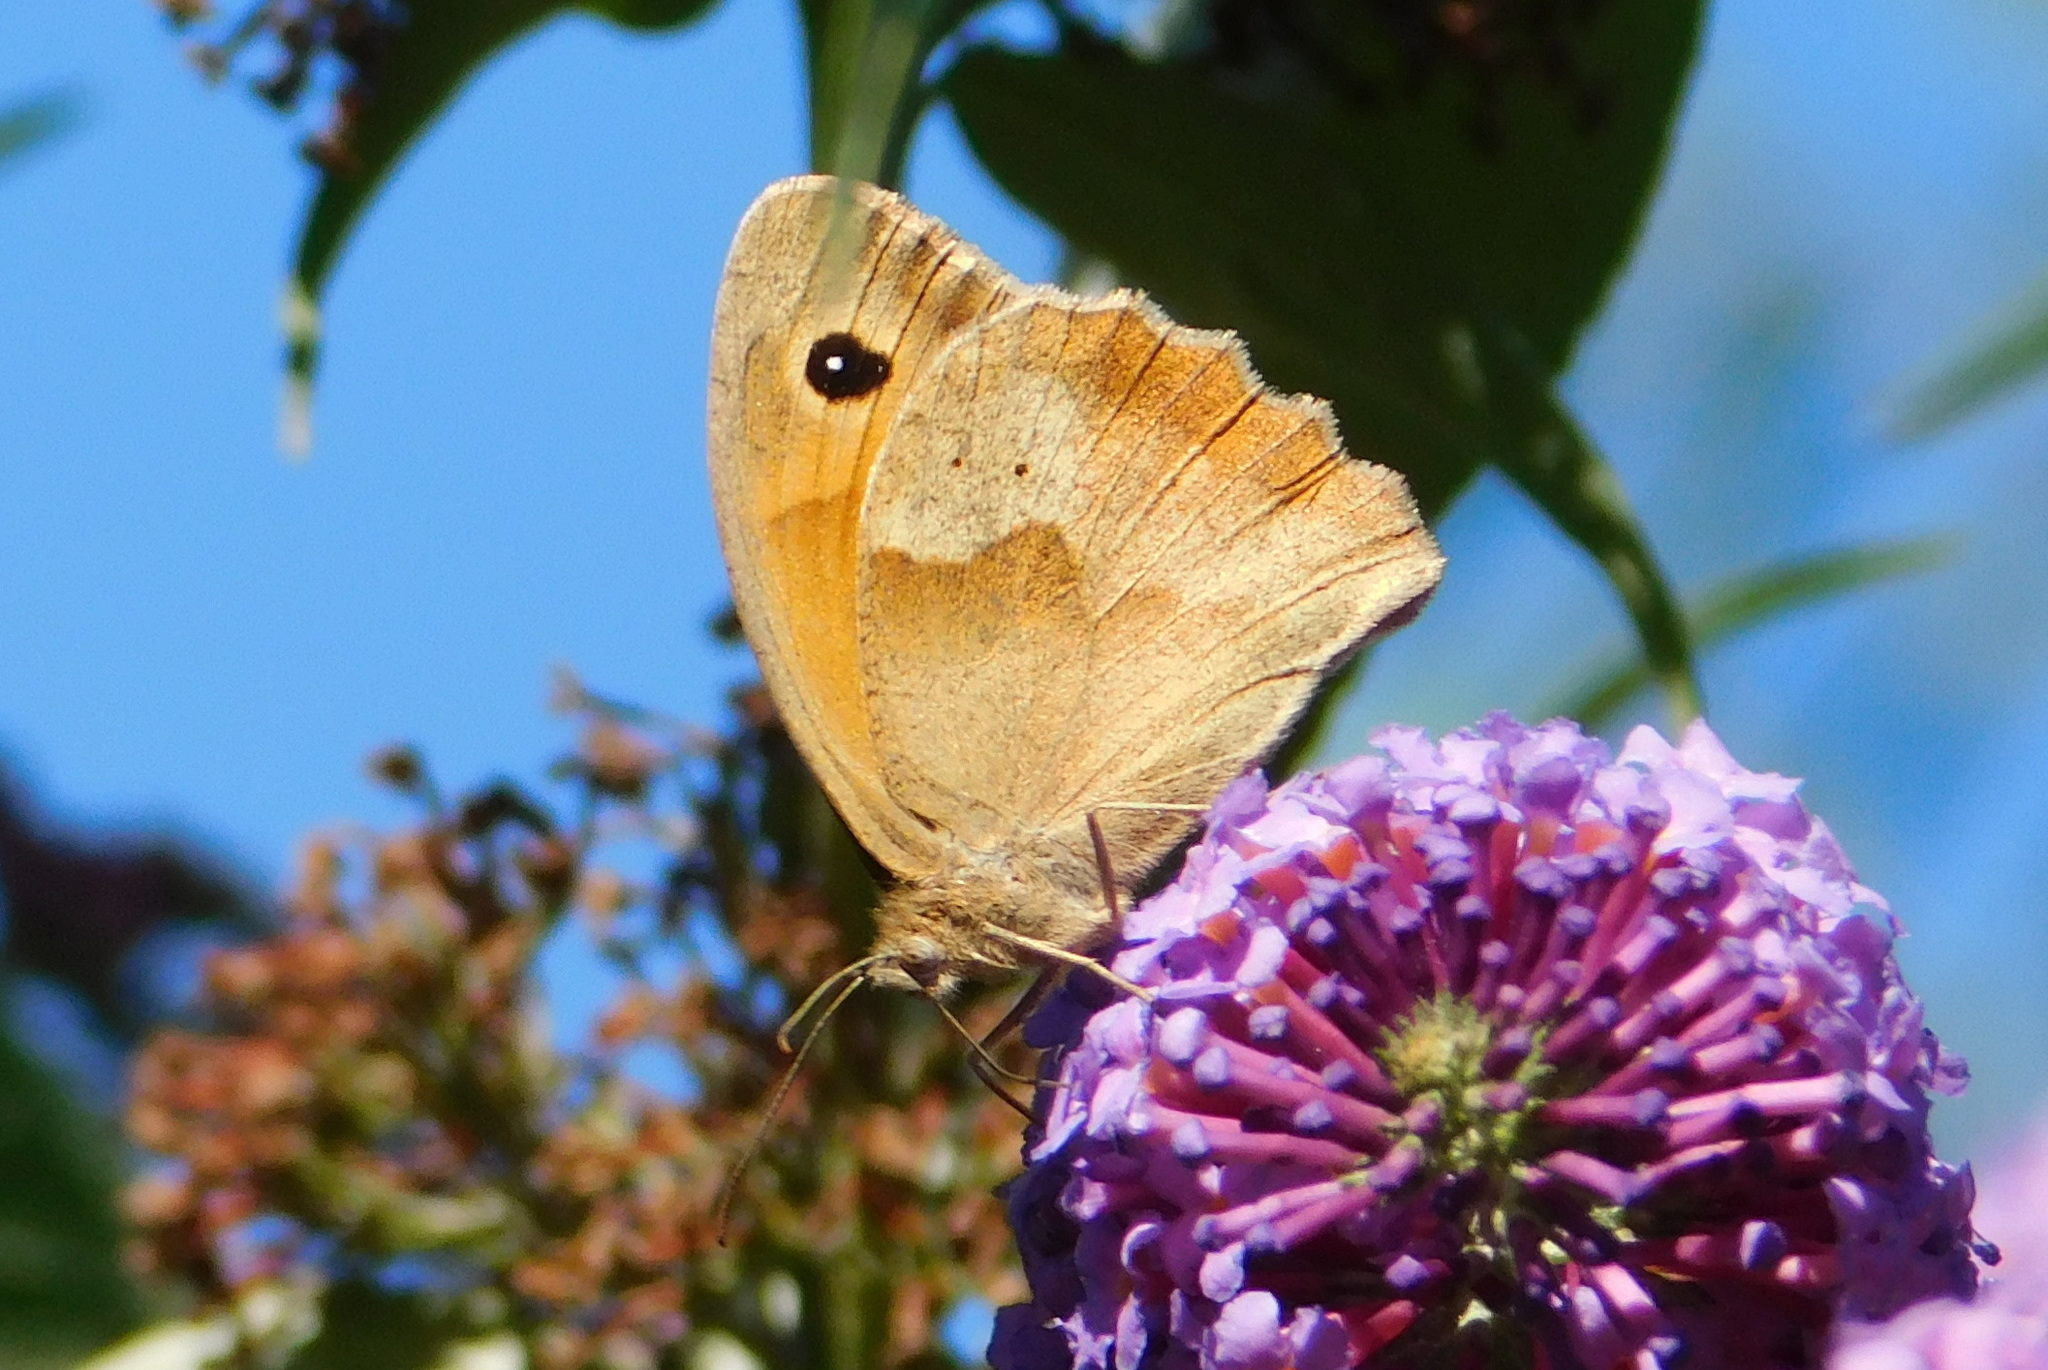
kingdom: Animalia
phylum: Arthropoda
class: Insecta
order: Lepidoptera
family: Nymphalidae
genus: Maniola
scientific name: Maniola jurtina
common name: Meadow brown
